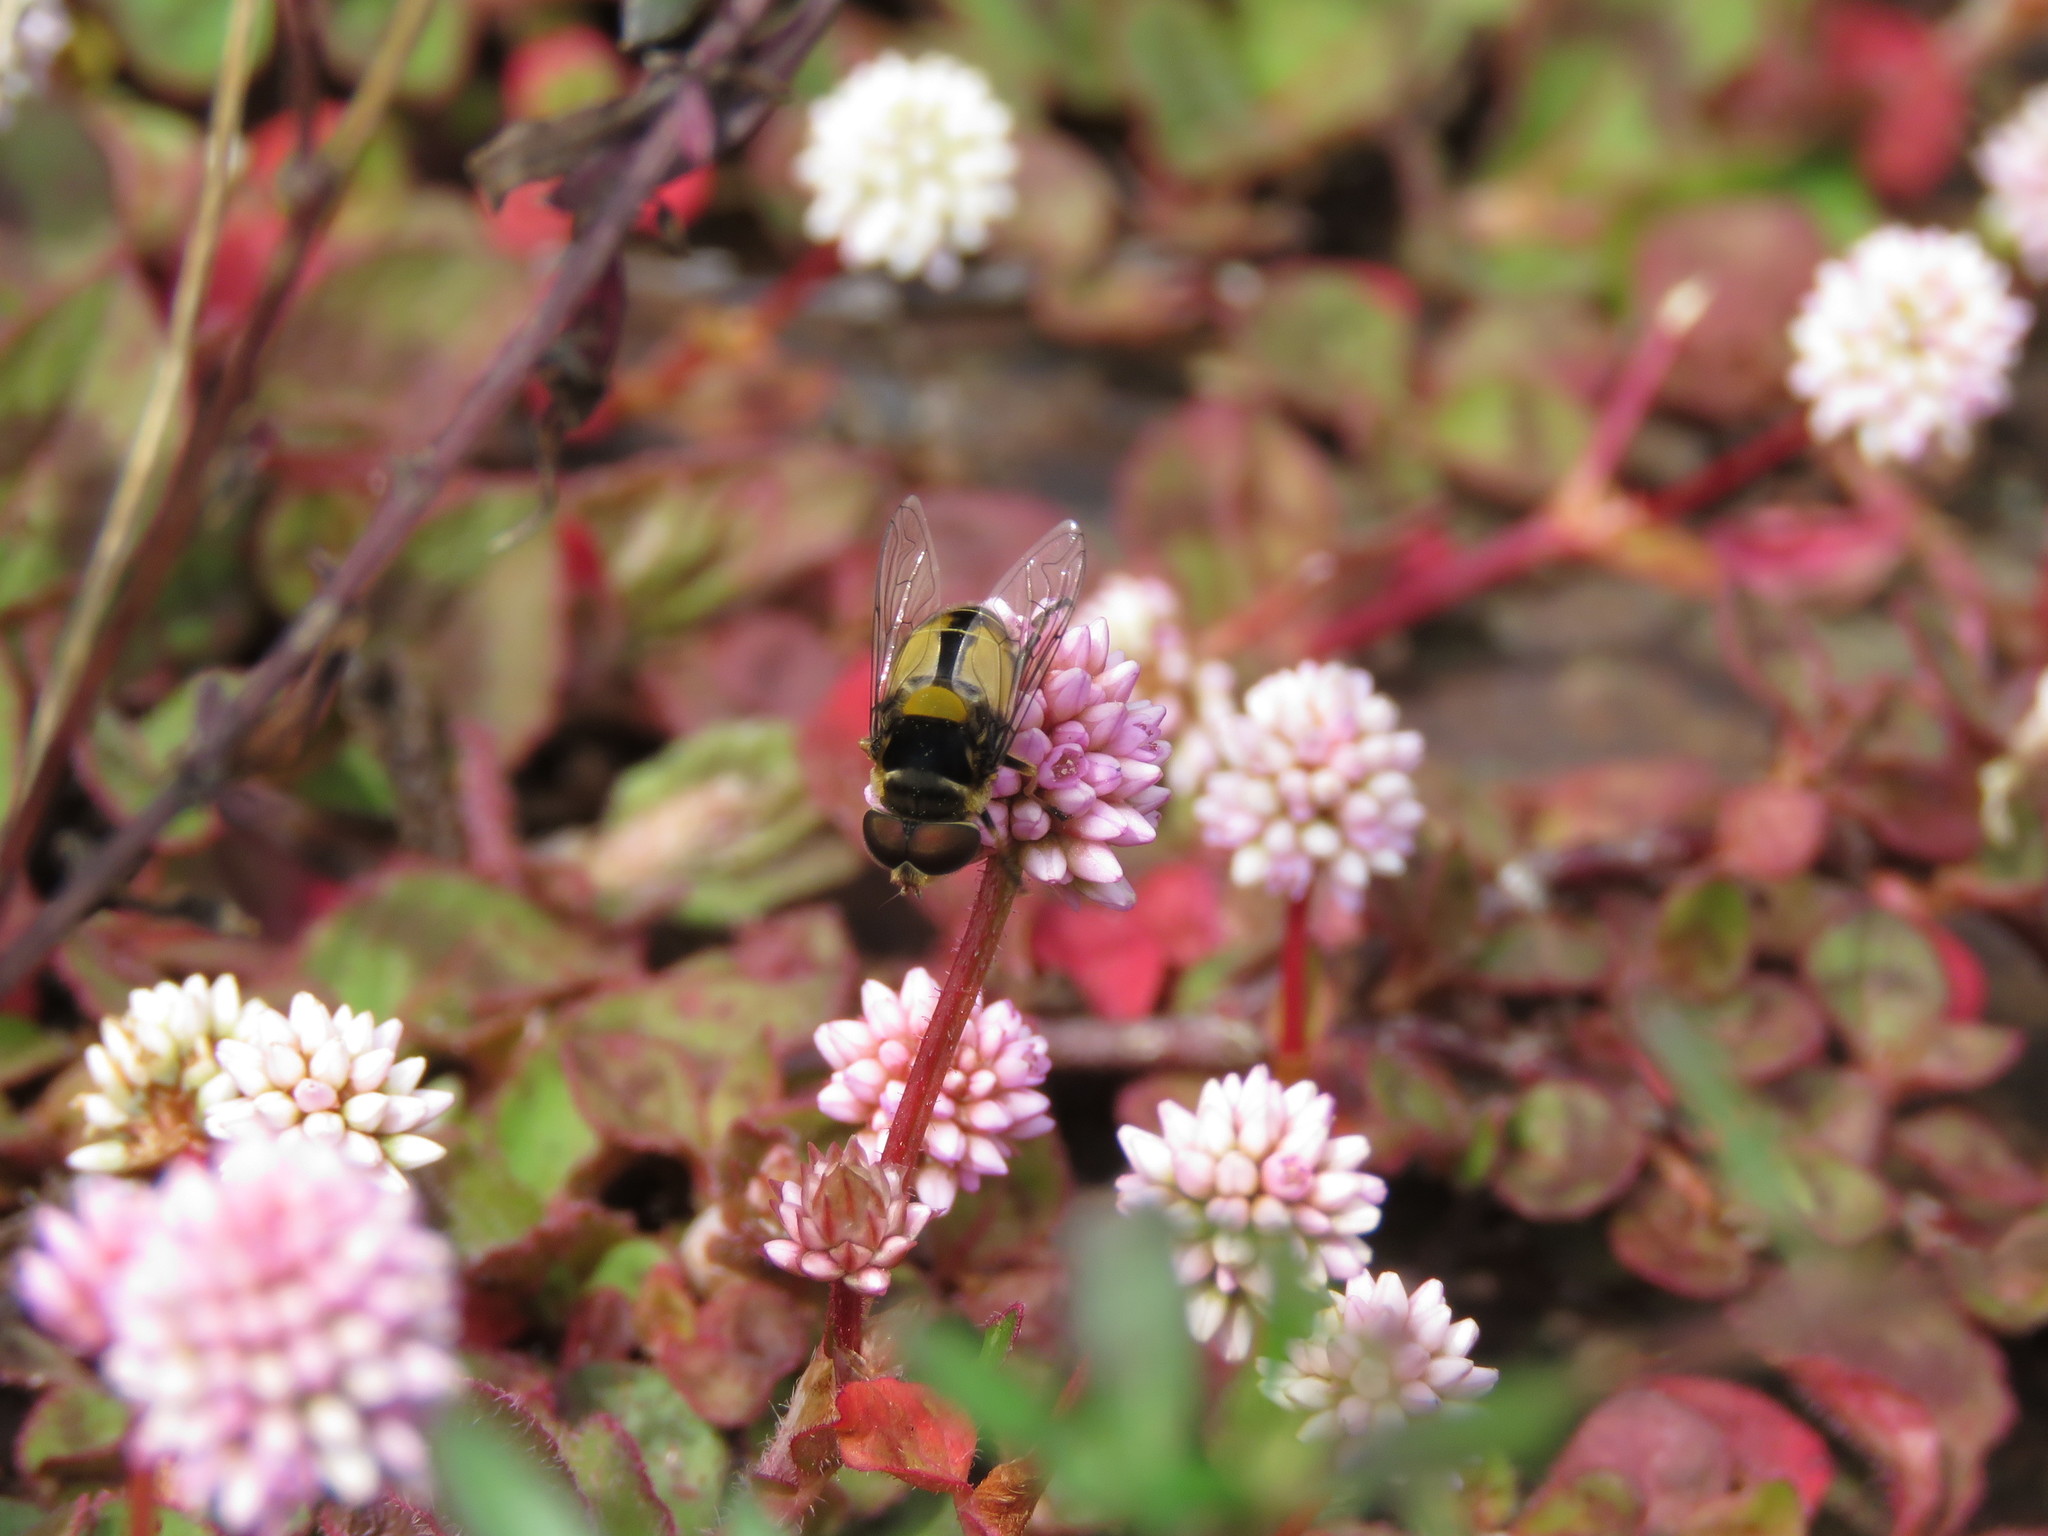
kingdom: Plantae
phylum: Tracheophyta
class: Magnoliopsida
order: Caryophyllales
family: Polygonaceae
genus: Persicaria
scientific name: Persicaria capitata
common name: Pinkhead smartweed
